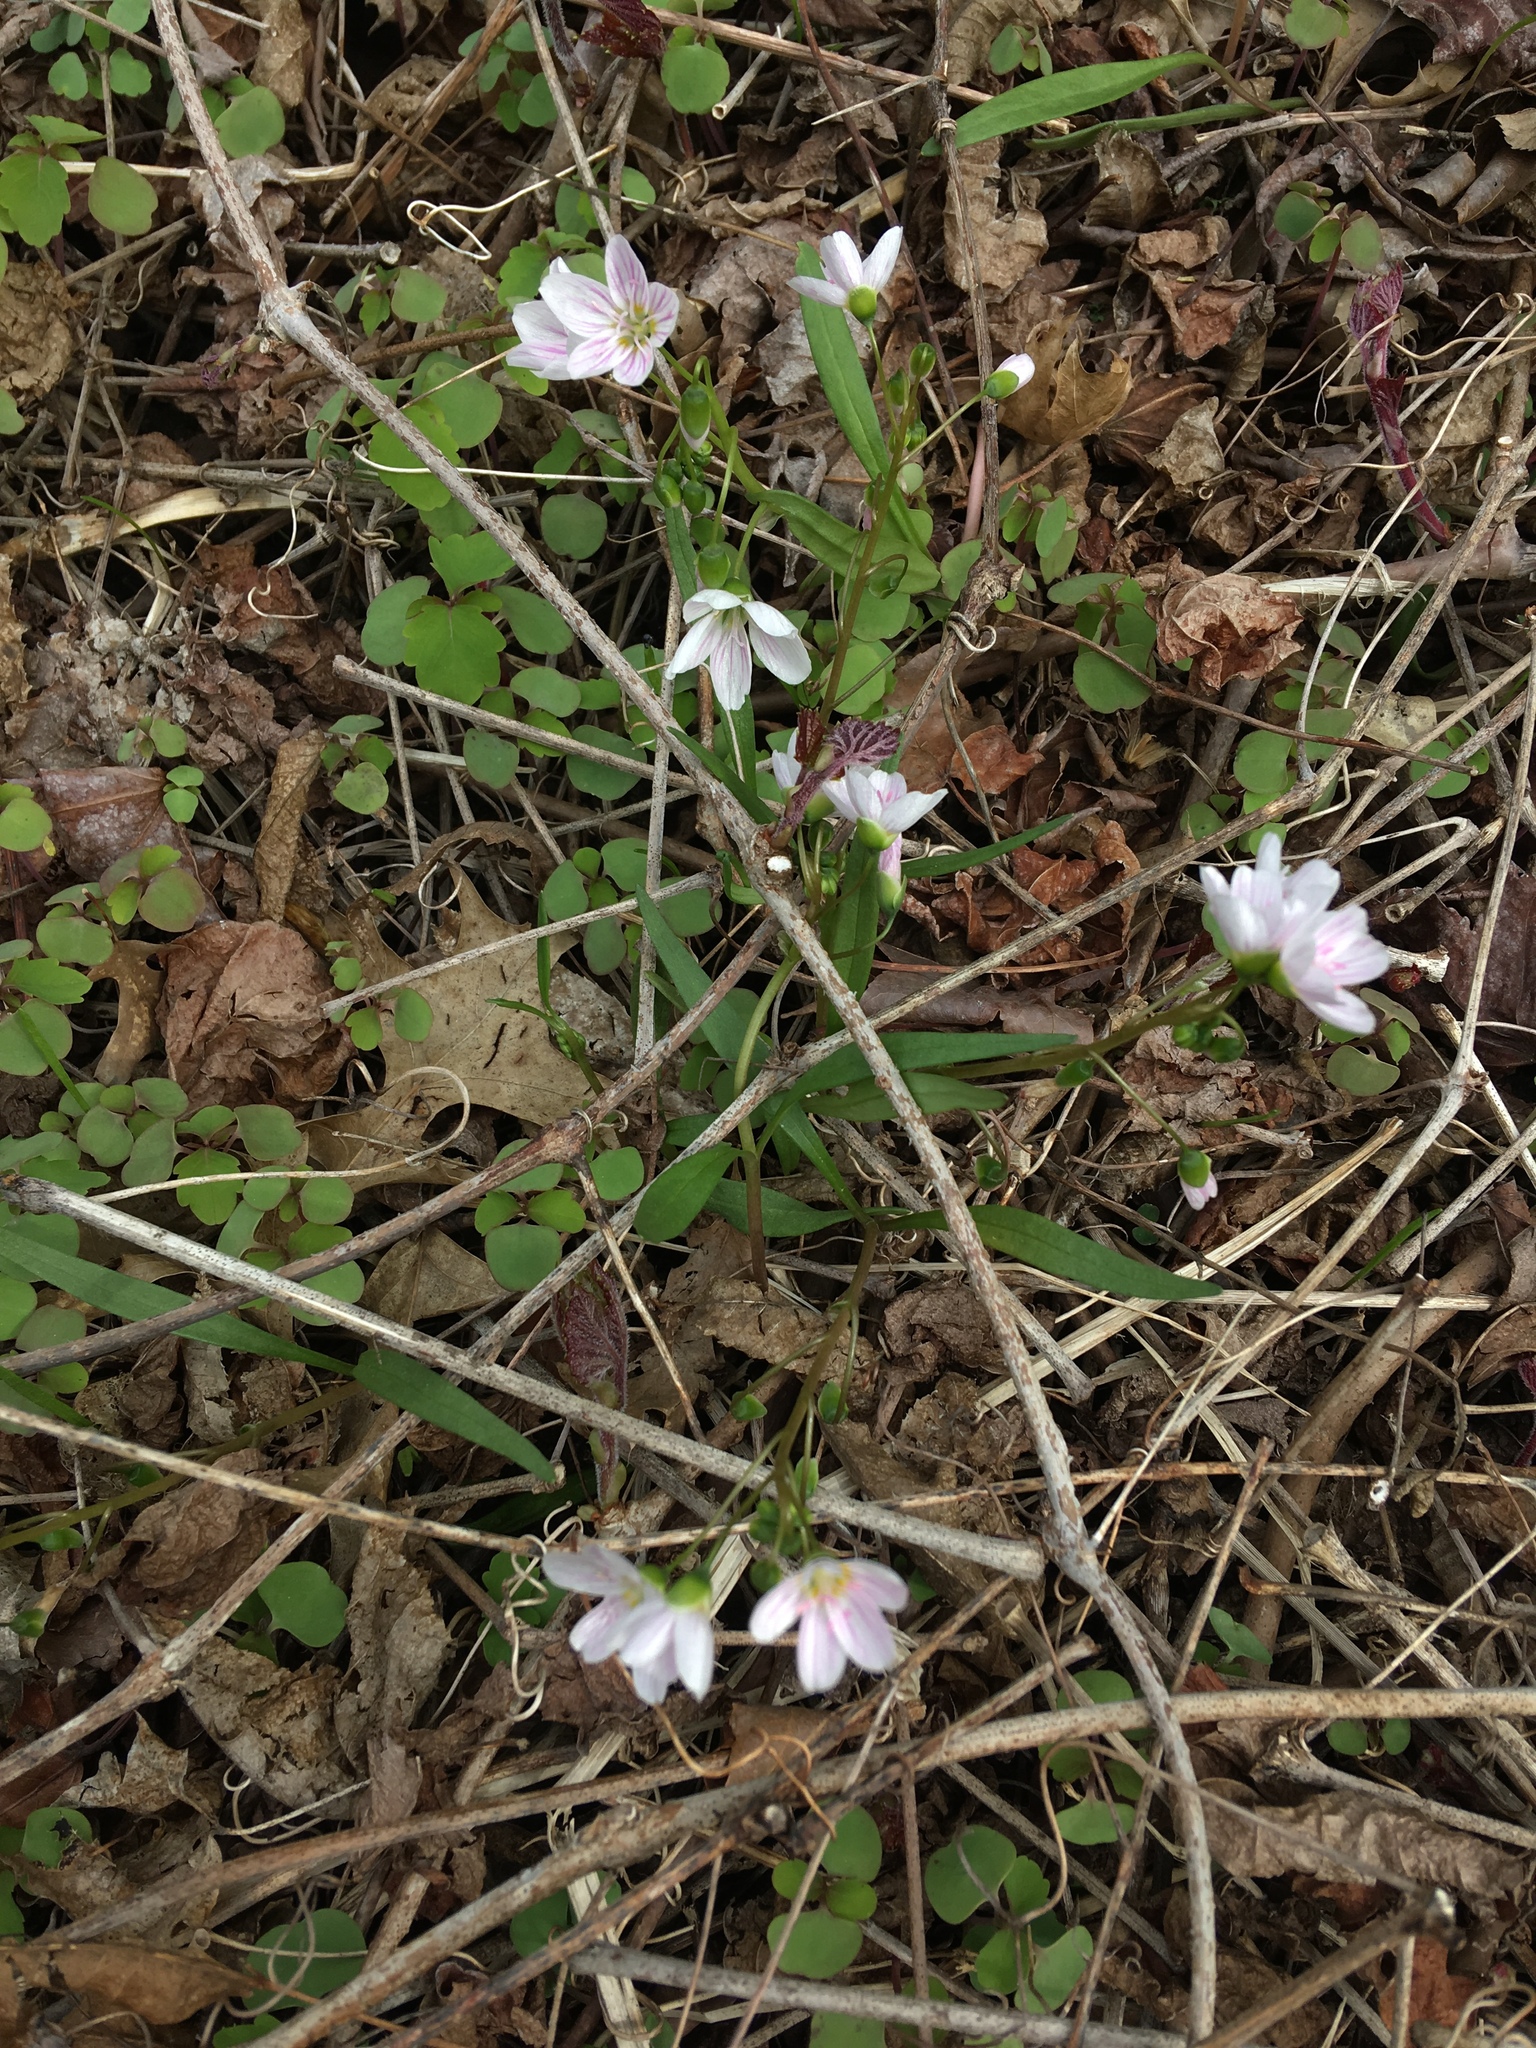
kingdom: Plantae
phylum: Tracheophyta
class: Magnoliopsida
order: Caryophyllales
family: Montiaceae
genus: Claytonia
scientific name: Claytonia virginica
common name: Virginia springbeauty
